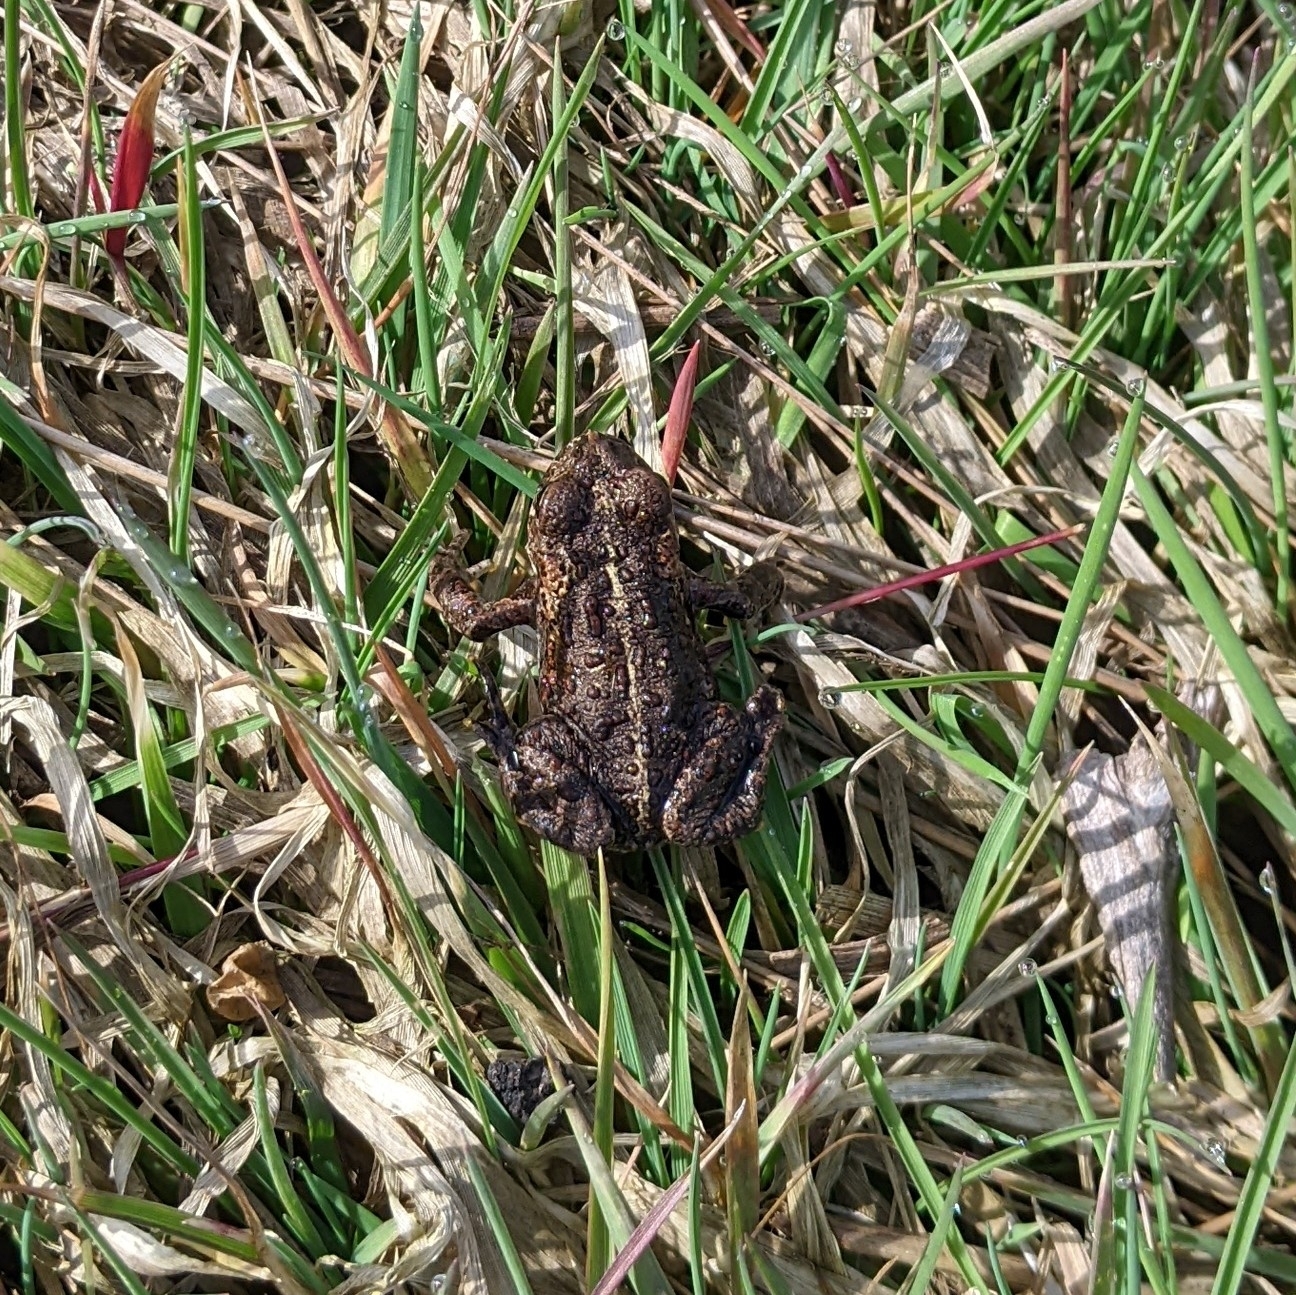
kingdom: Animalia
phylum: Chordata
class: Amphibia
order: Anura
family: Bufonidae
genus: Anaxyrus
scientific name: Anaxyrus boreas
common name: Western toad
